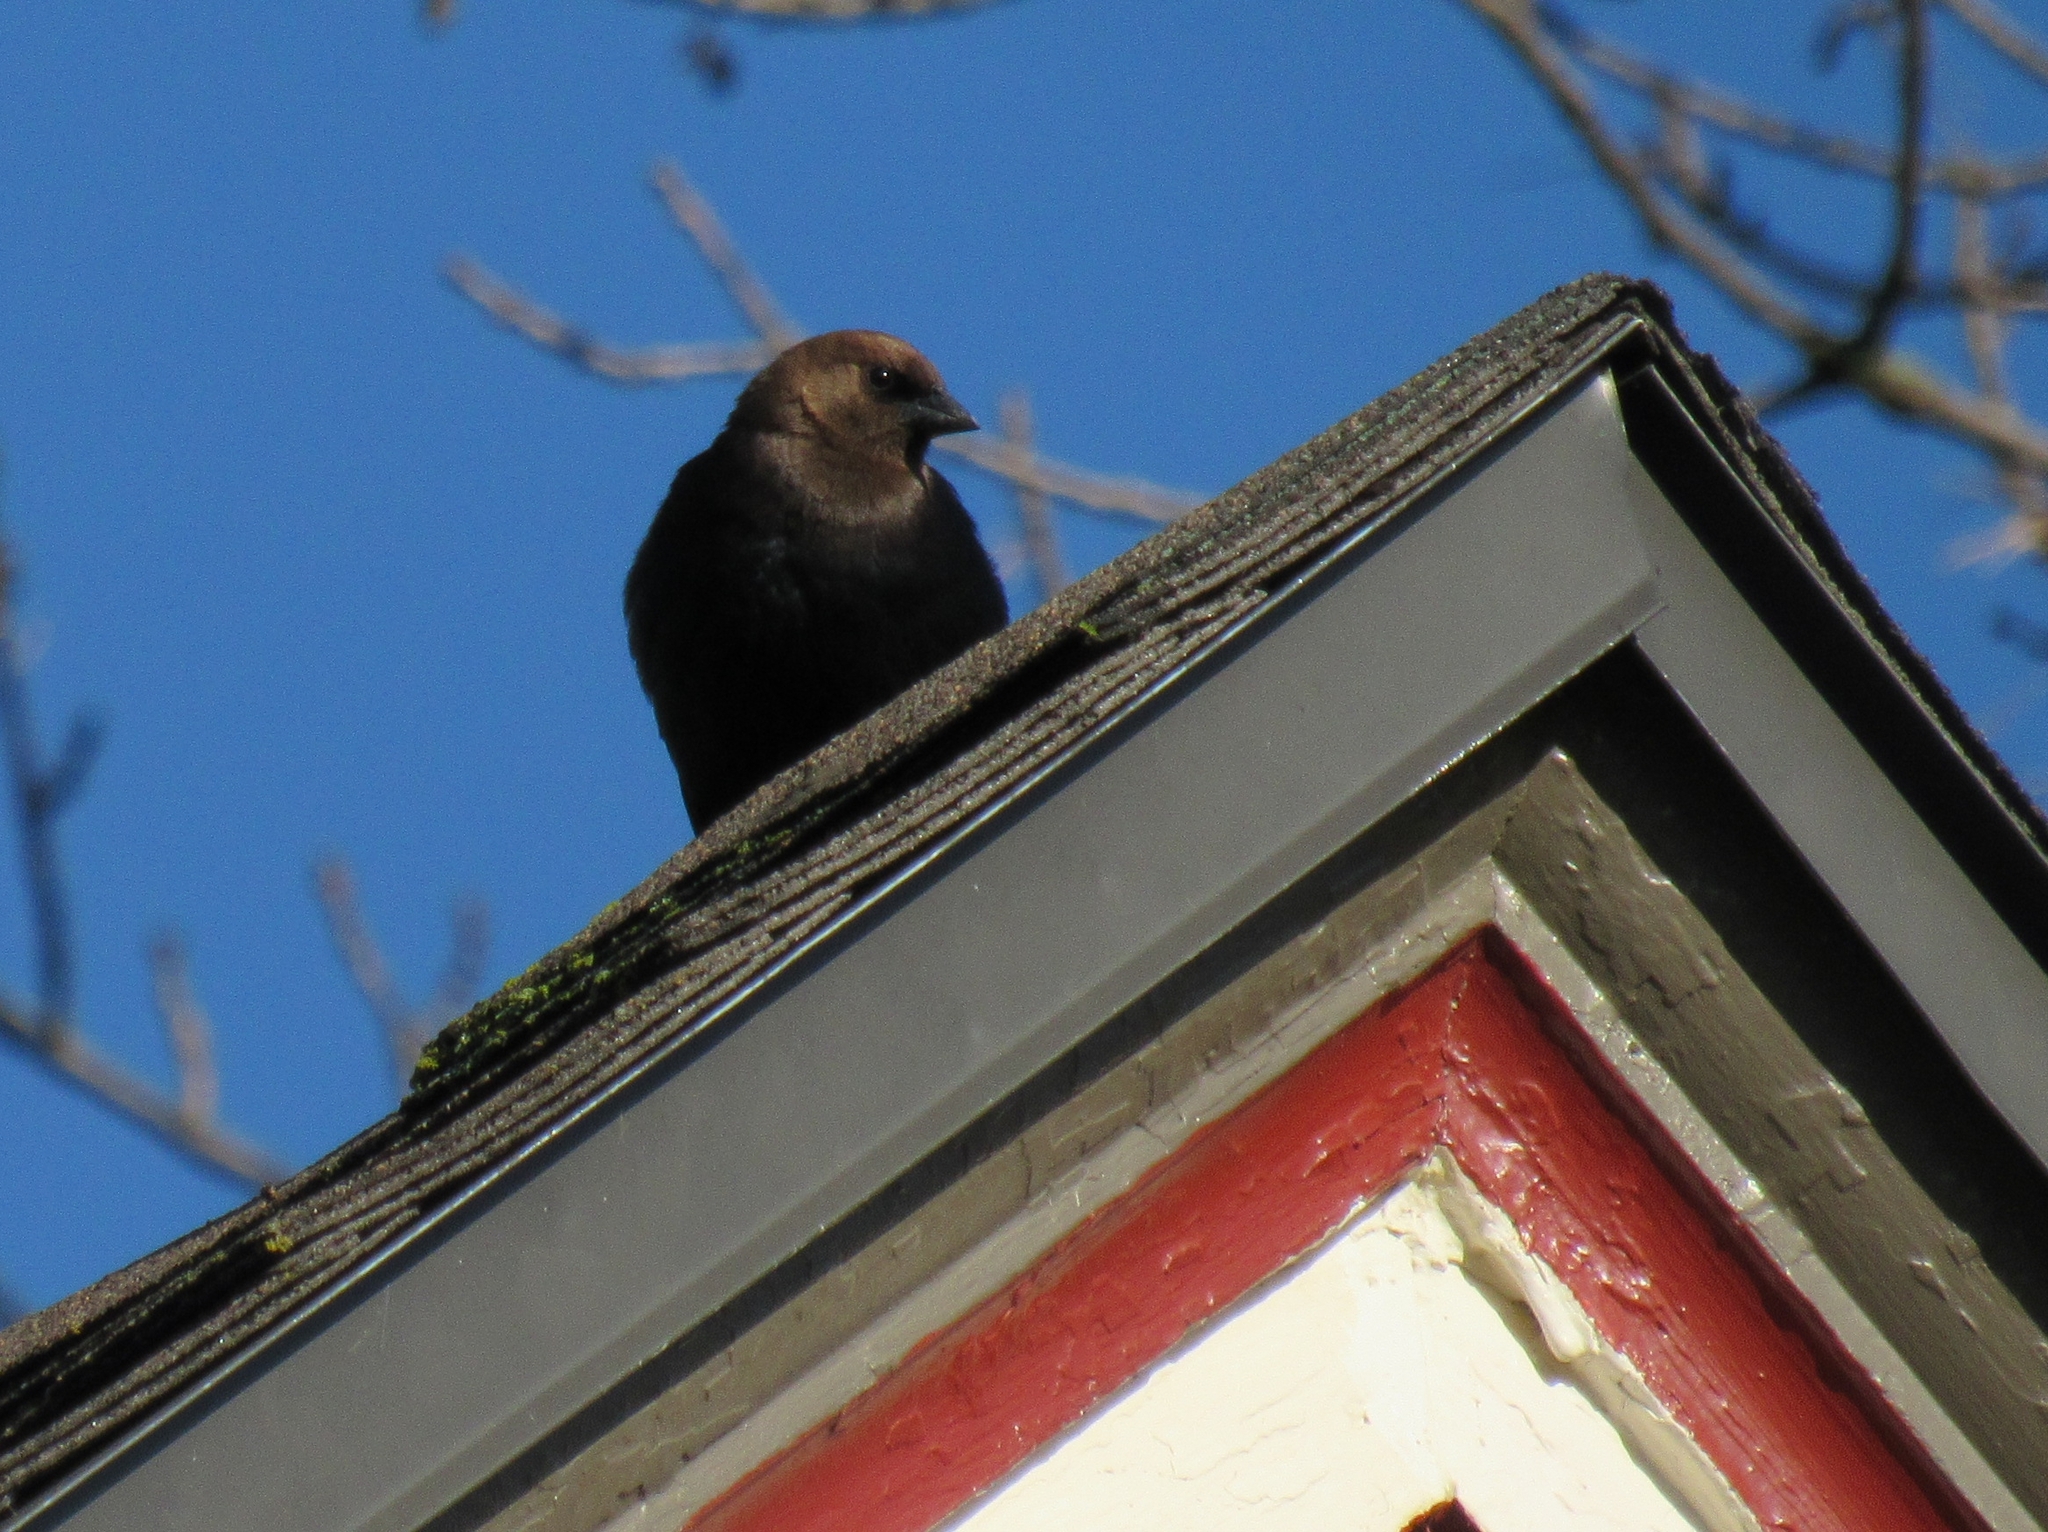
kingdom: Animalia
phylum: Chordata
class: Aves
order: Passeriformes
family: Icteridae
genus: Molothrus
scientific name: Molothrus ater
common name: Brown-headed cowbird
